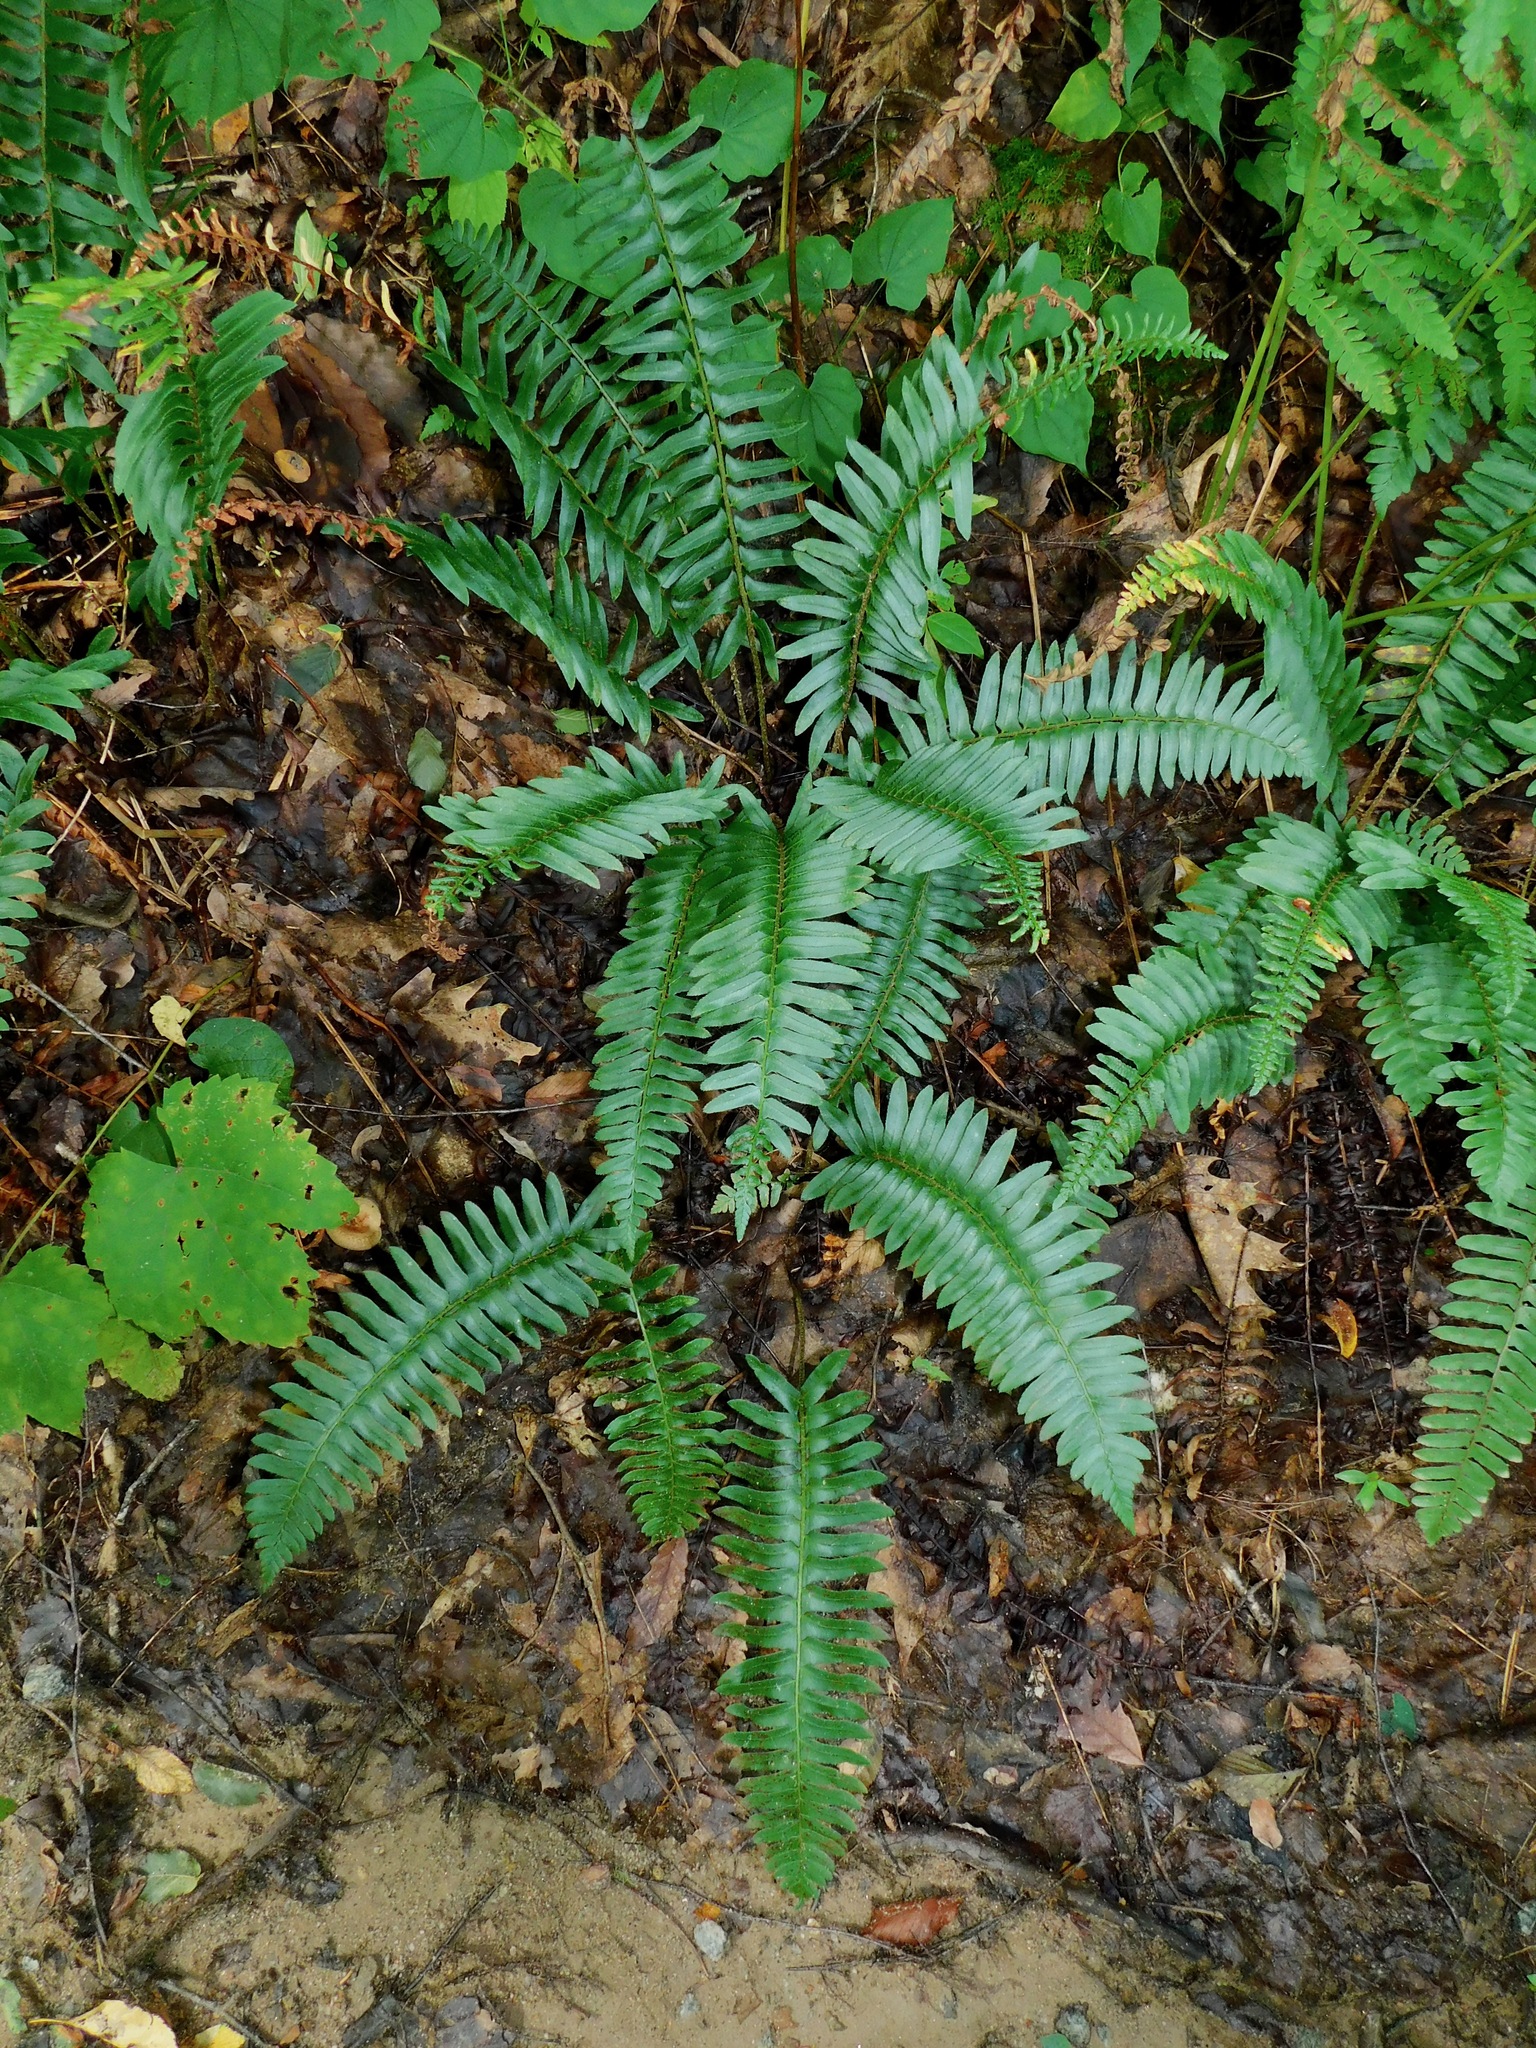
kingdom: Plantae
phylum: Tracheophyta
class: Polypodiopsida
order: Polypodiales
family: Dryopteridaceae
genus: Polystichum
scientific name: Polystichum acrostichoides
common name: Christmas fern
